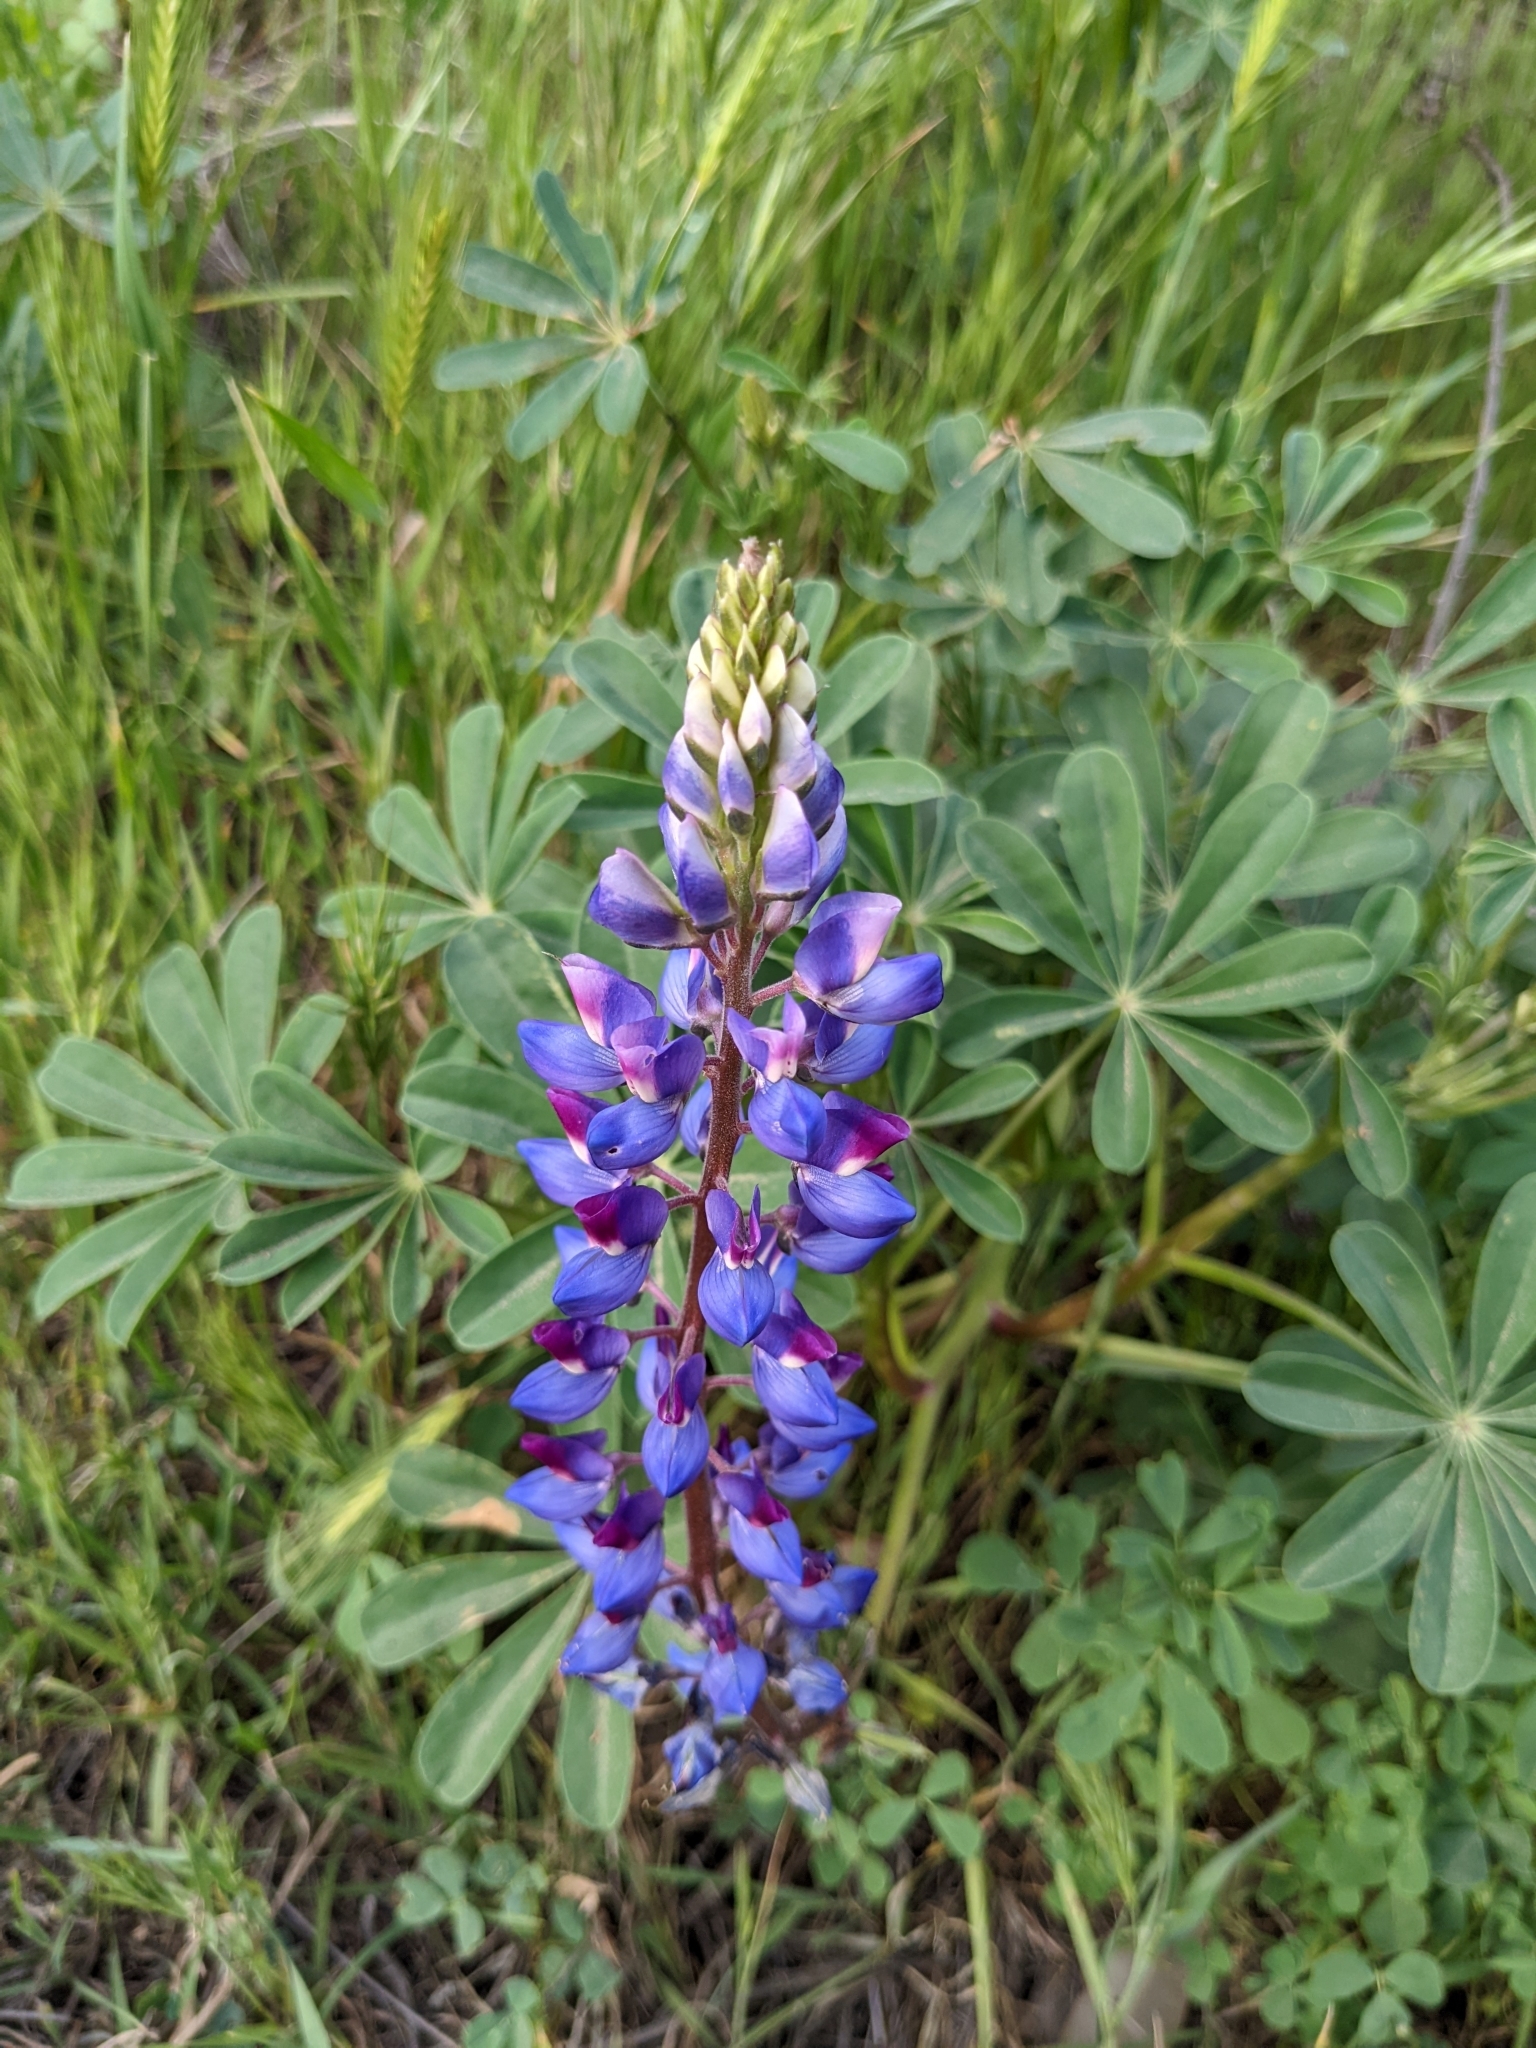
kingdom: Plantae
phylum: Tracheophyta
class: Magnoliopsida
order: Fabales
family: Fabaceae
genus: Lupinus
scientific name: Lupinus succulentus
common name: Arroyo lupine
